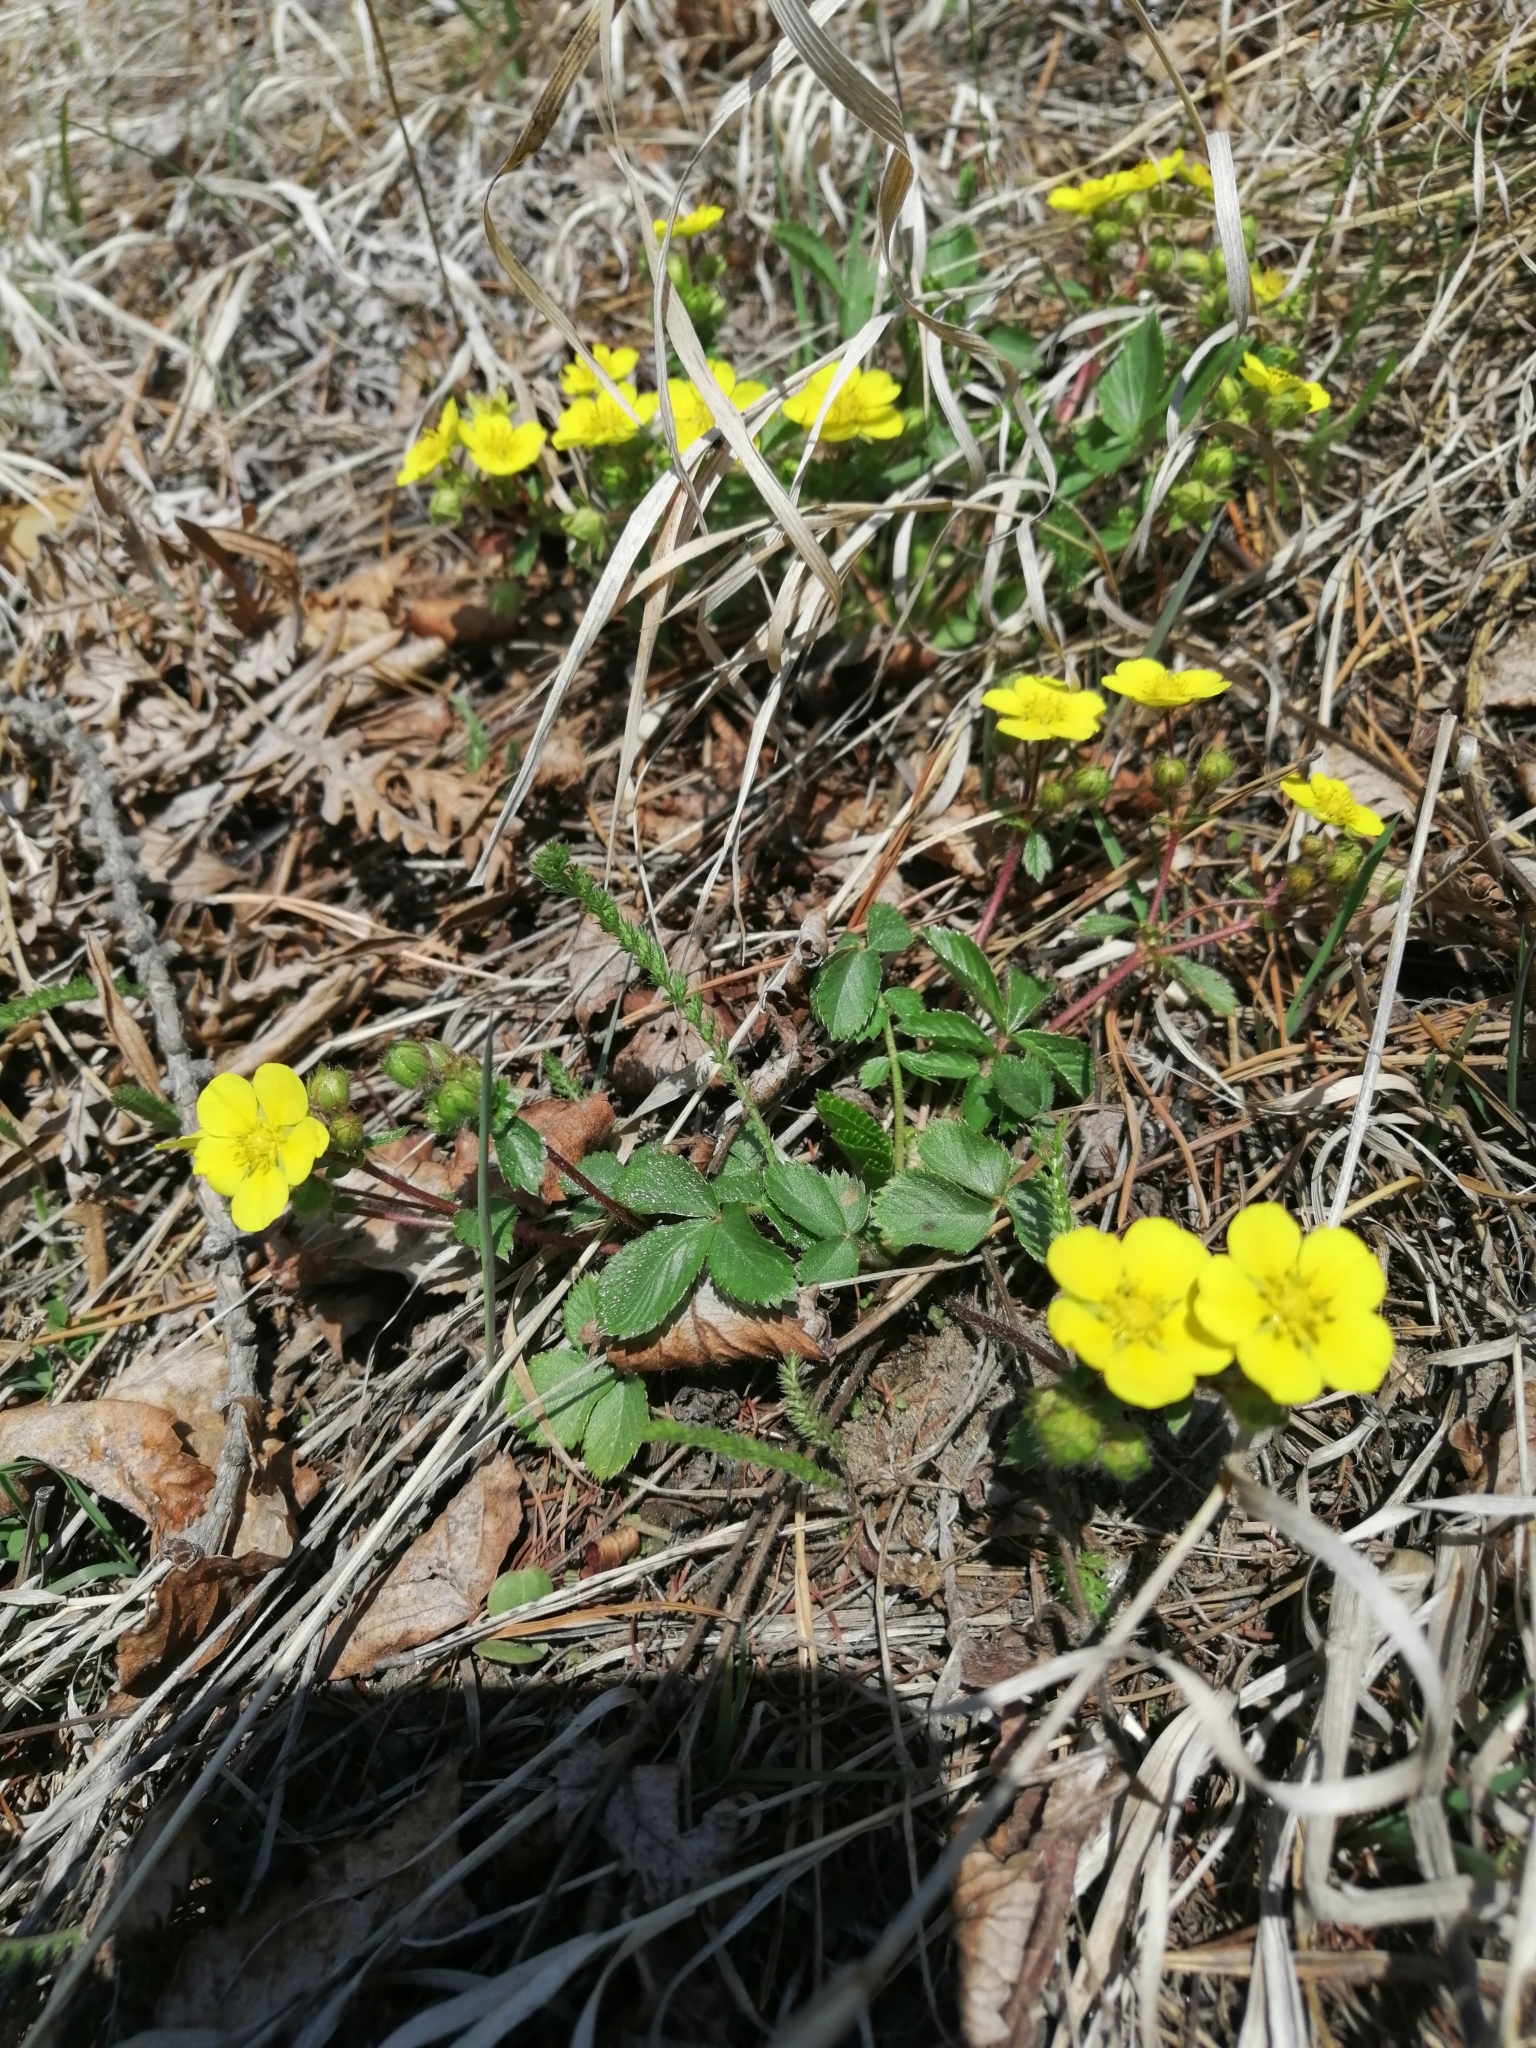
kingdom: Plantae
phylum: Tracheophyta
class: Magnoliopsida
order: Rosales
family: Rosaceae
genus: Potentilla
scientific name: Potentilla fragarioides
